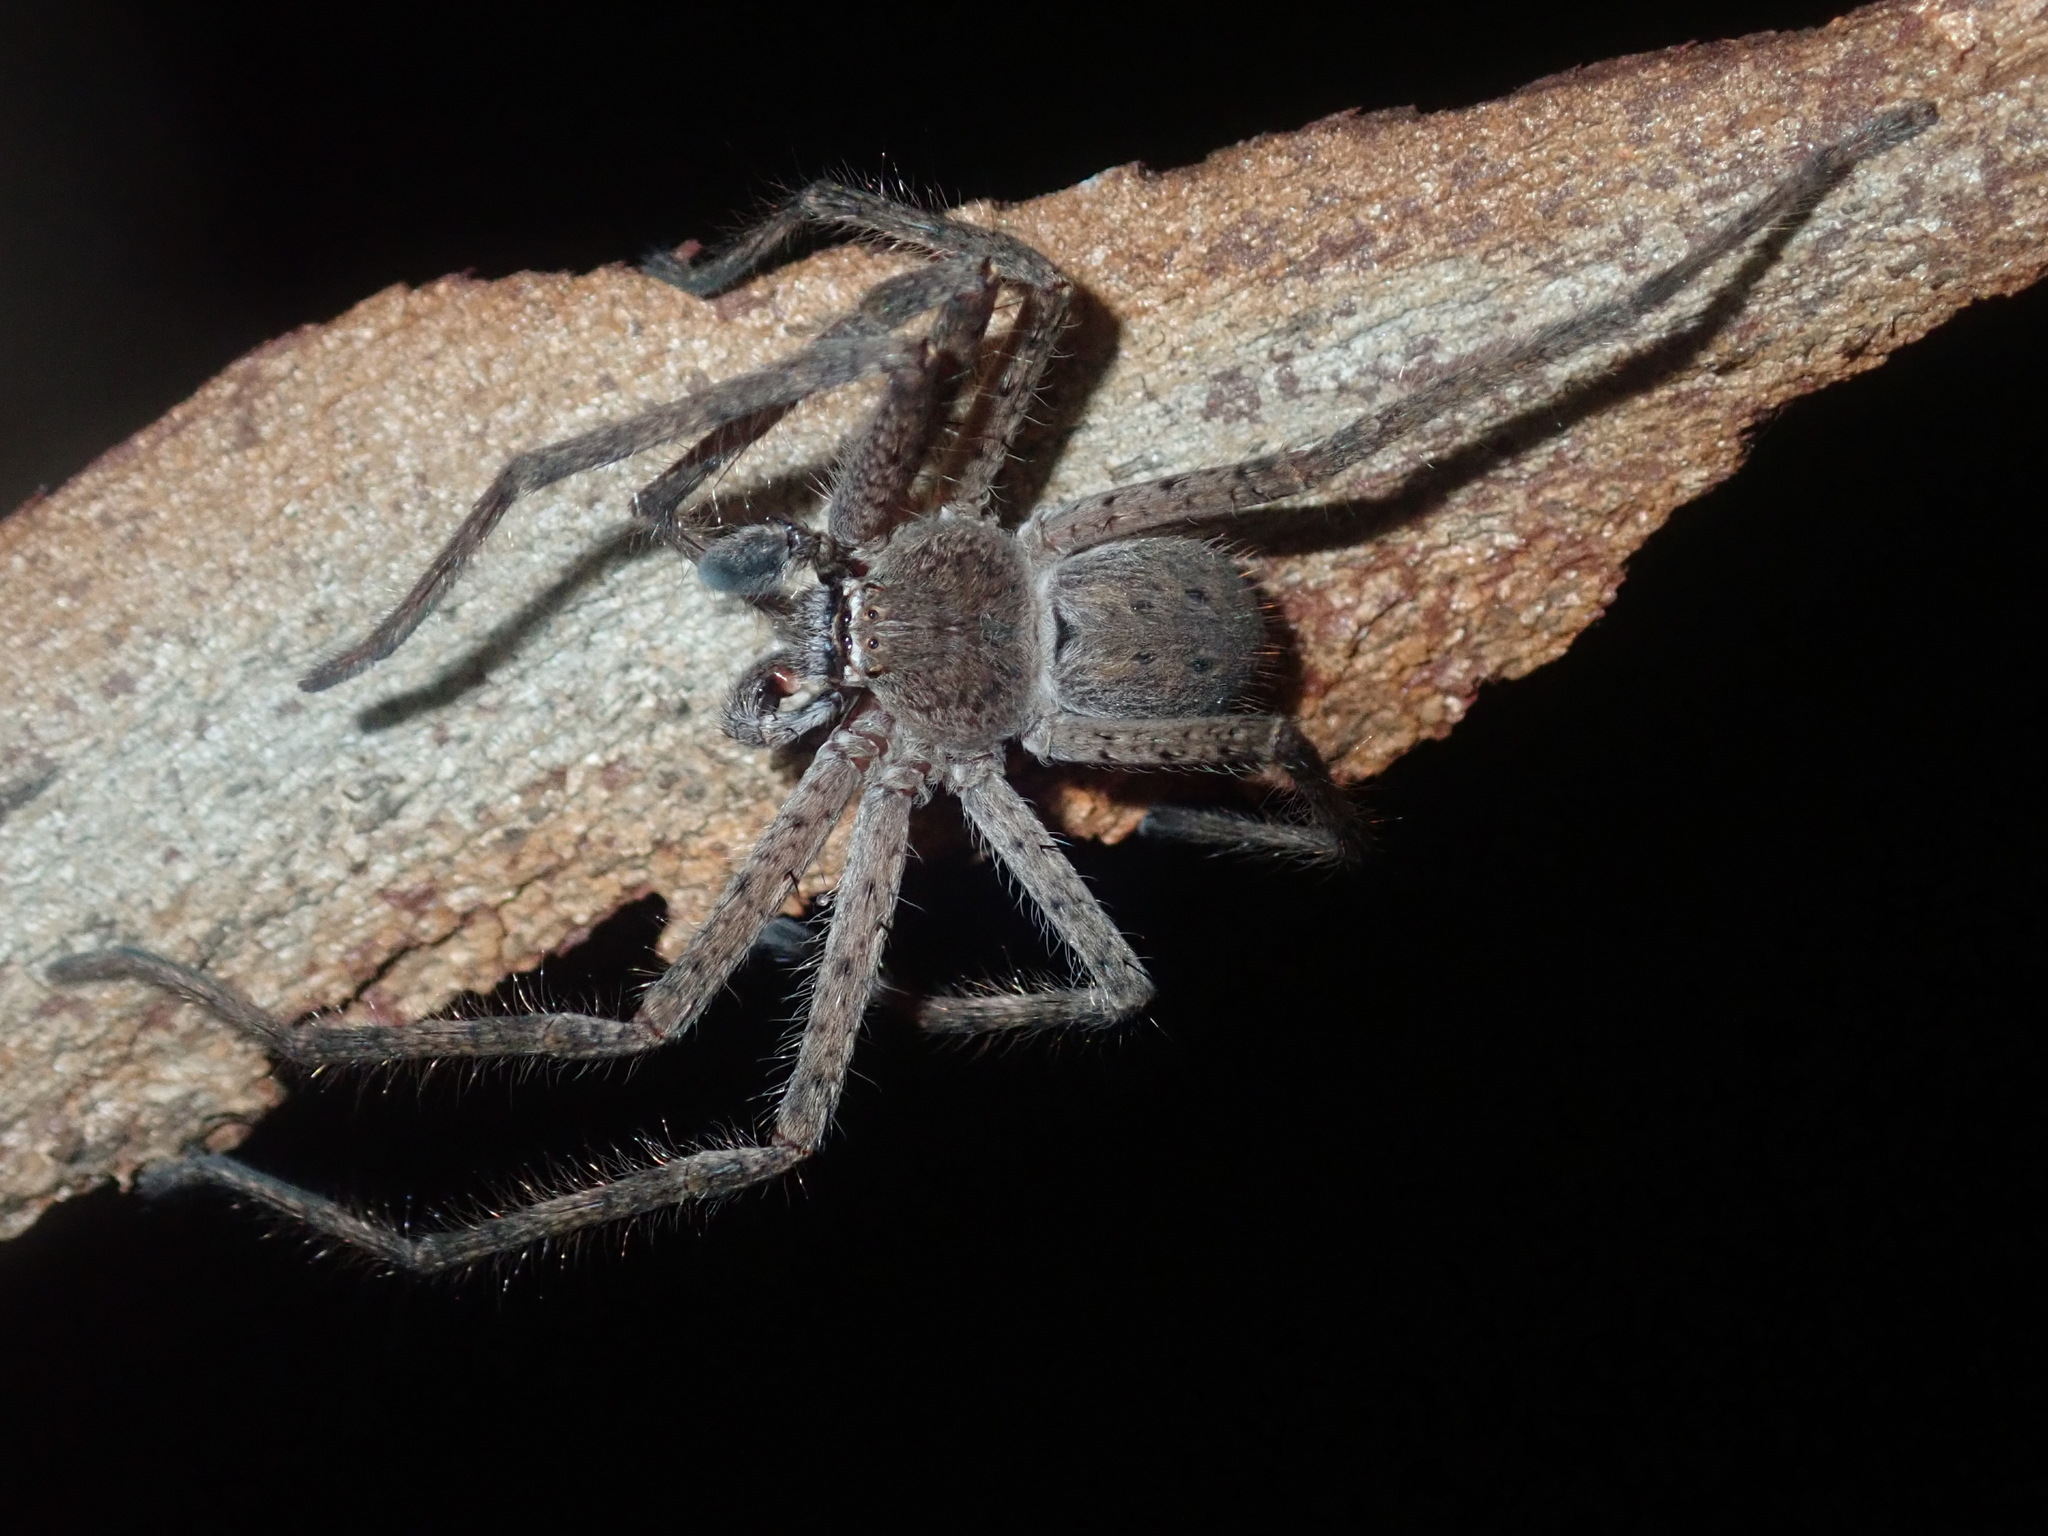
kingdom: Animalia
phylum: Arthropoda
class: Arachnida
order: Araneae
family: Sparassidae
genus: Isopedella
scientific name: Isopedella cana
